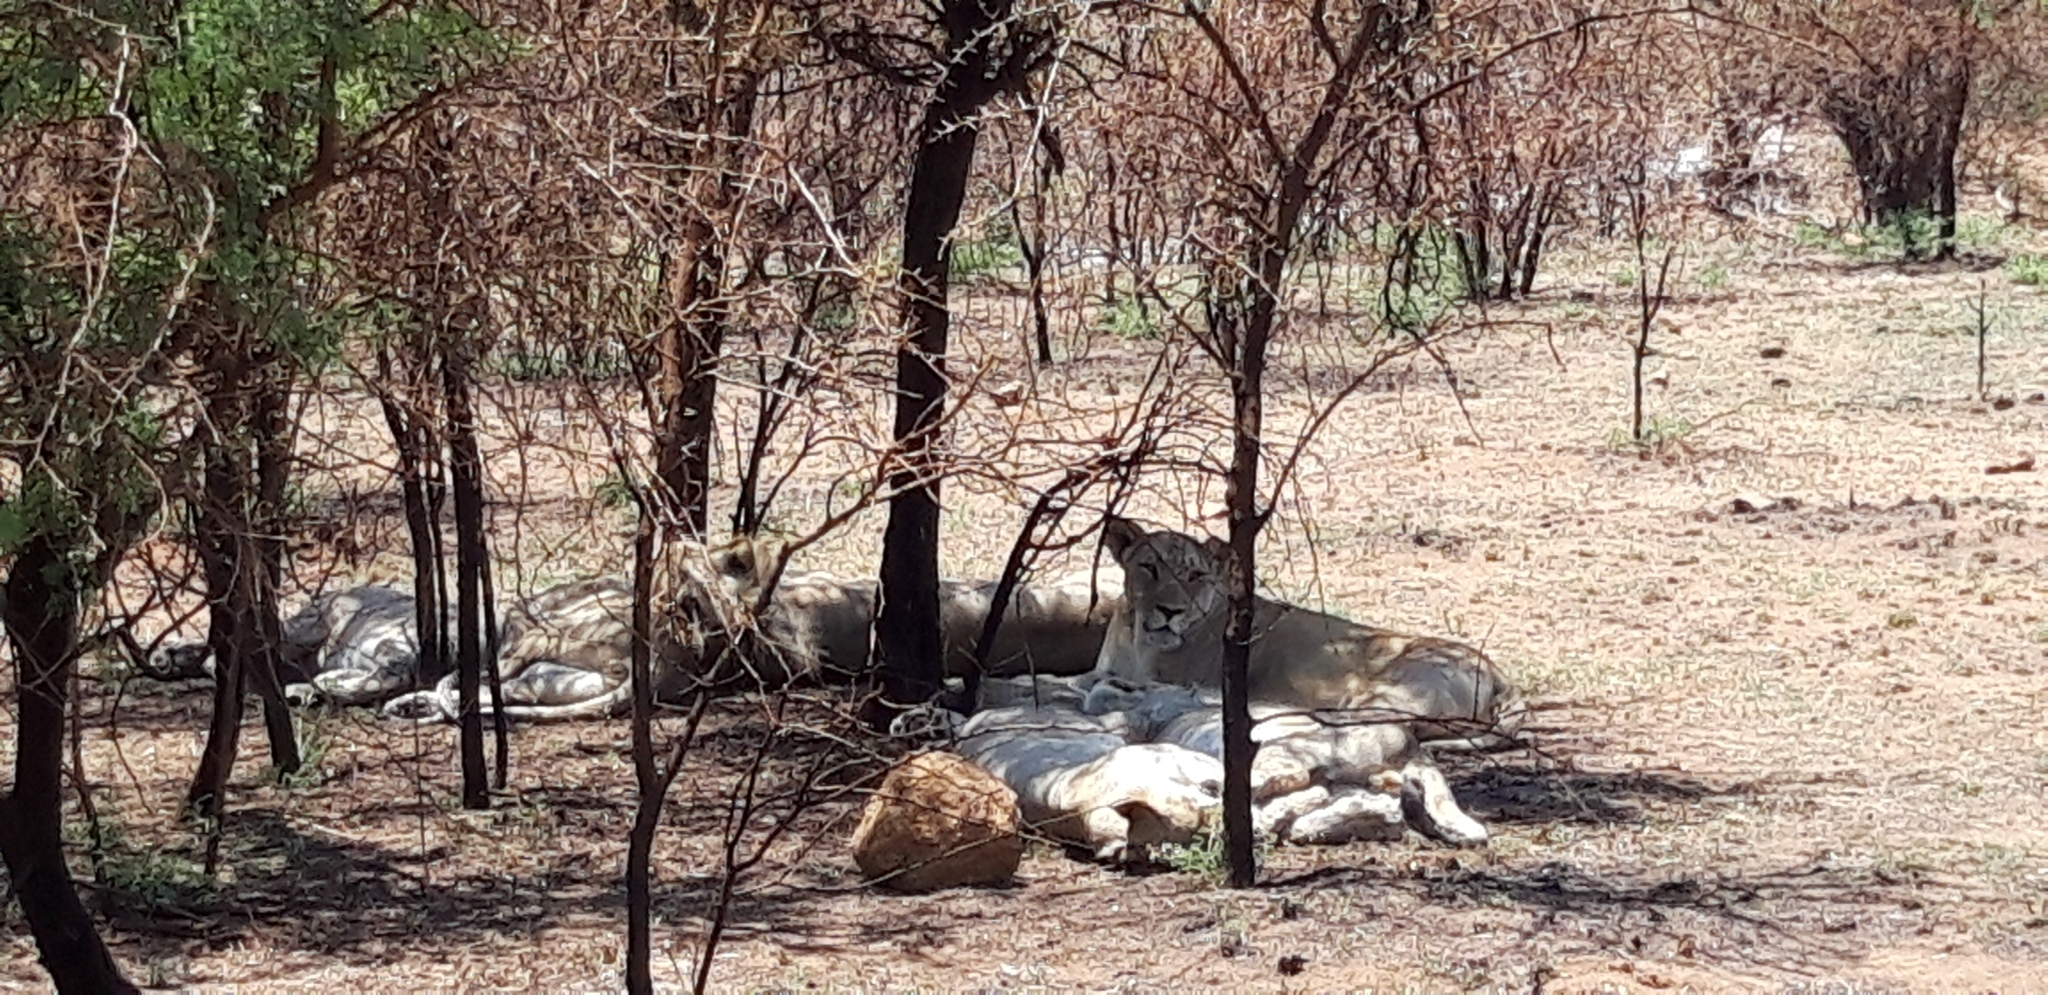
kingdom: Animalia
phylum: Chordata
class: Mammalia
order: Carnivora
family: Felidae
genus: Panthera
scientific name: Panthera leo
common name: Lion
